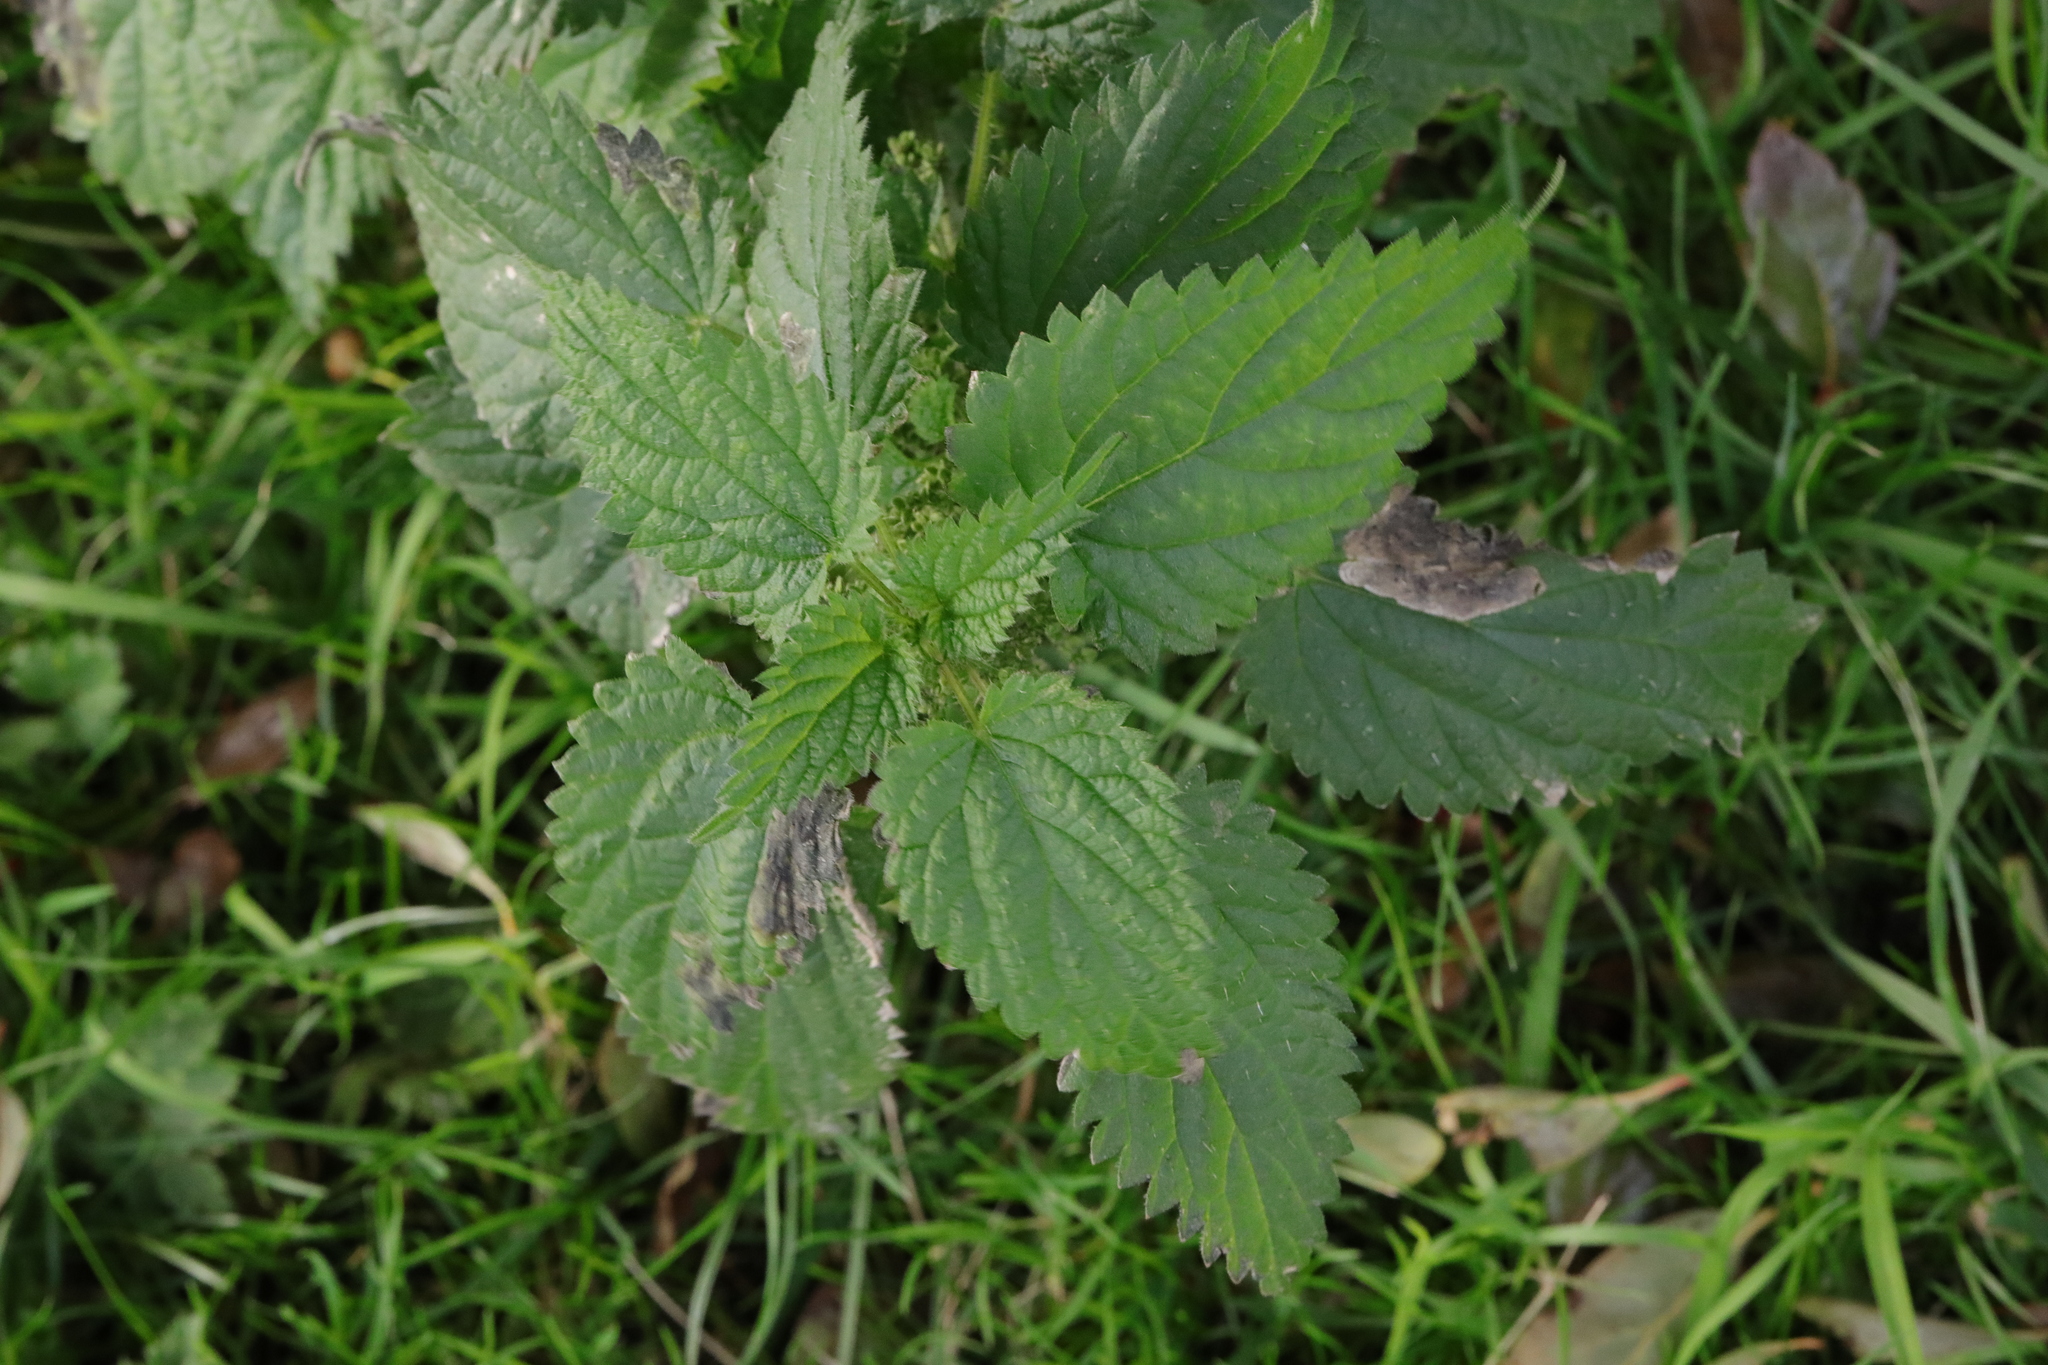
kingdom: Plantae
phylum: Tracheophyta
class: Magnoliopsida
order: Rosales
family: Urticaceae
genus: Urtica
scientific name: Urtica dioica
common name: Common nettle
